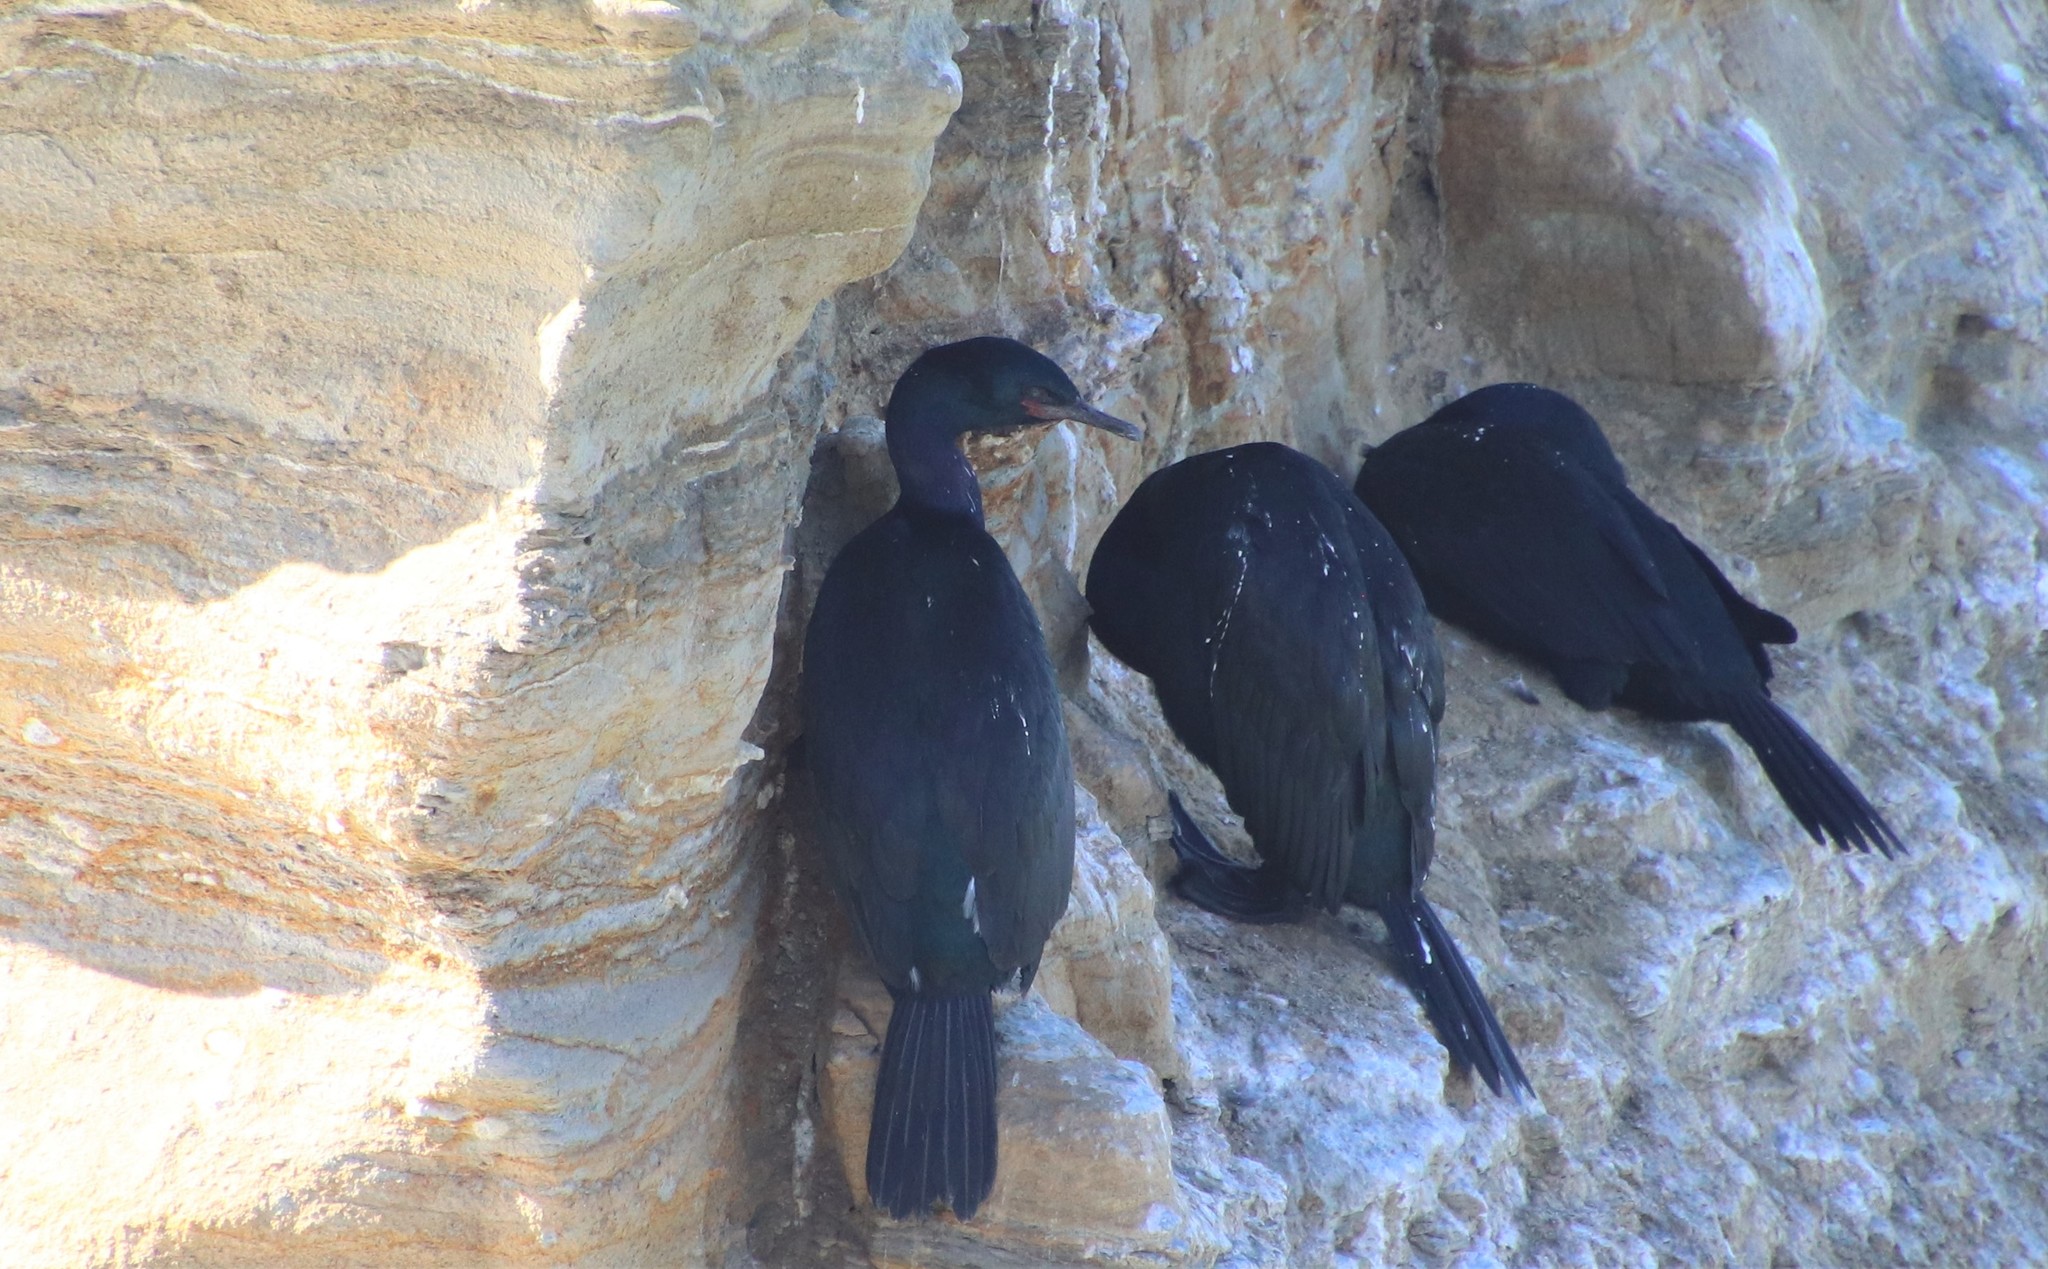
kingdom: Animalia
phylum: Chordata
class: Aves
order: Suliformes
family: Phalacrocoracidae
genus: Phalacrocorax
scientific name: Phalacrocorax pelagicus
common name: Pelagic cormorant
